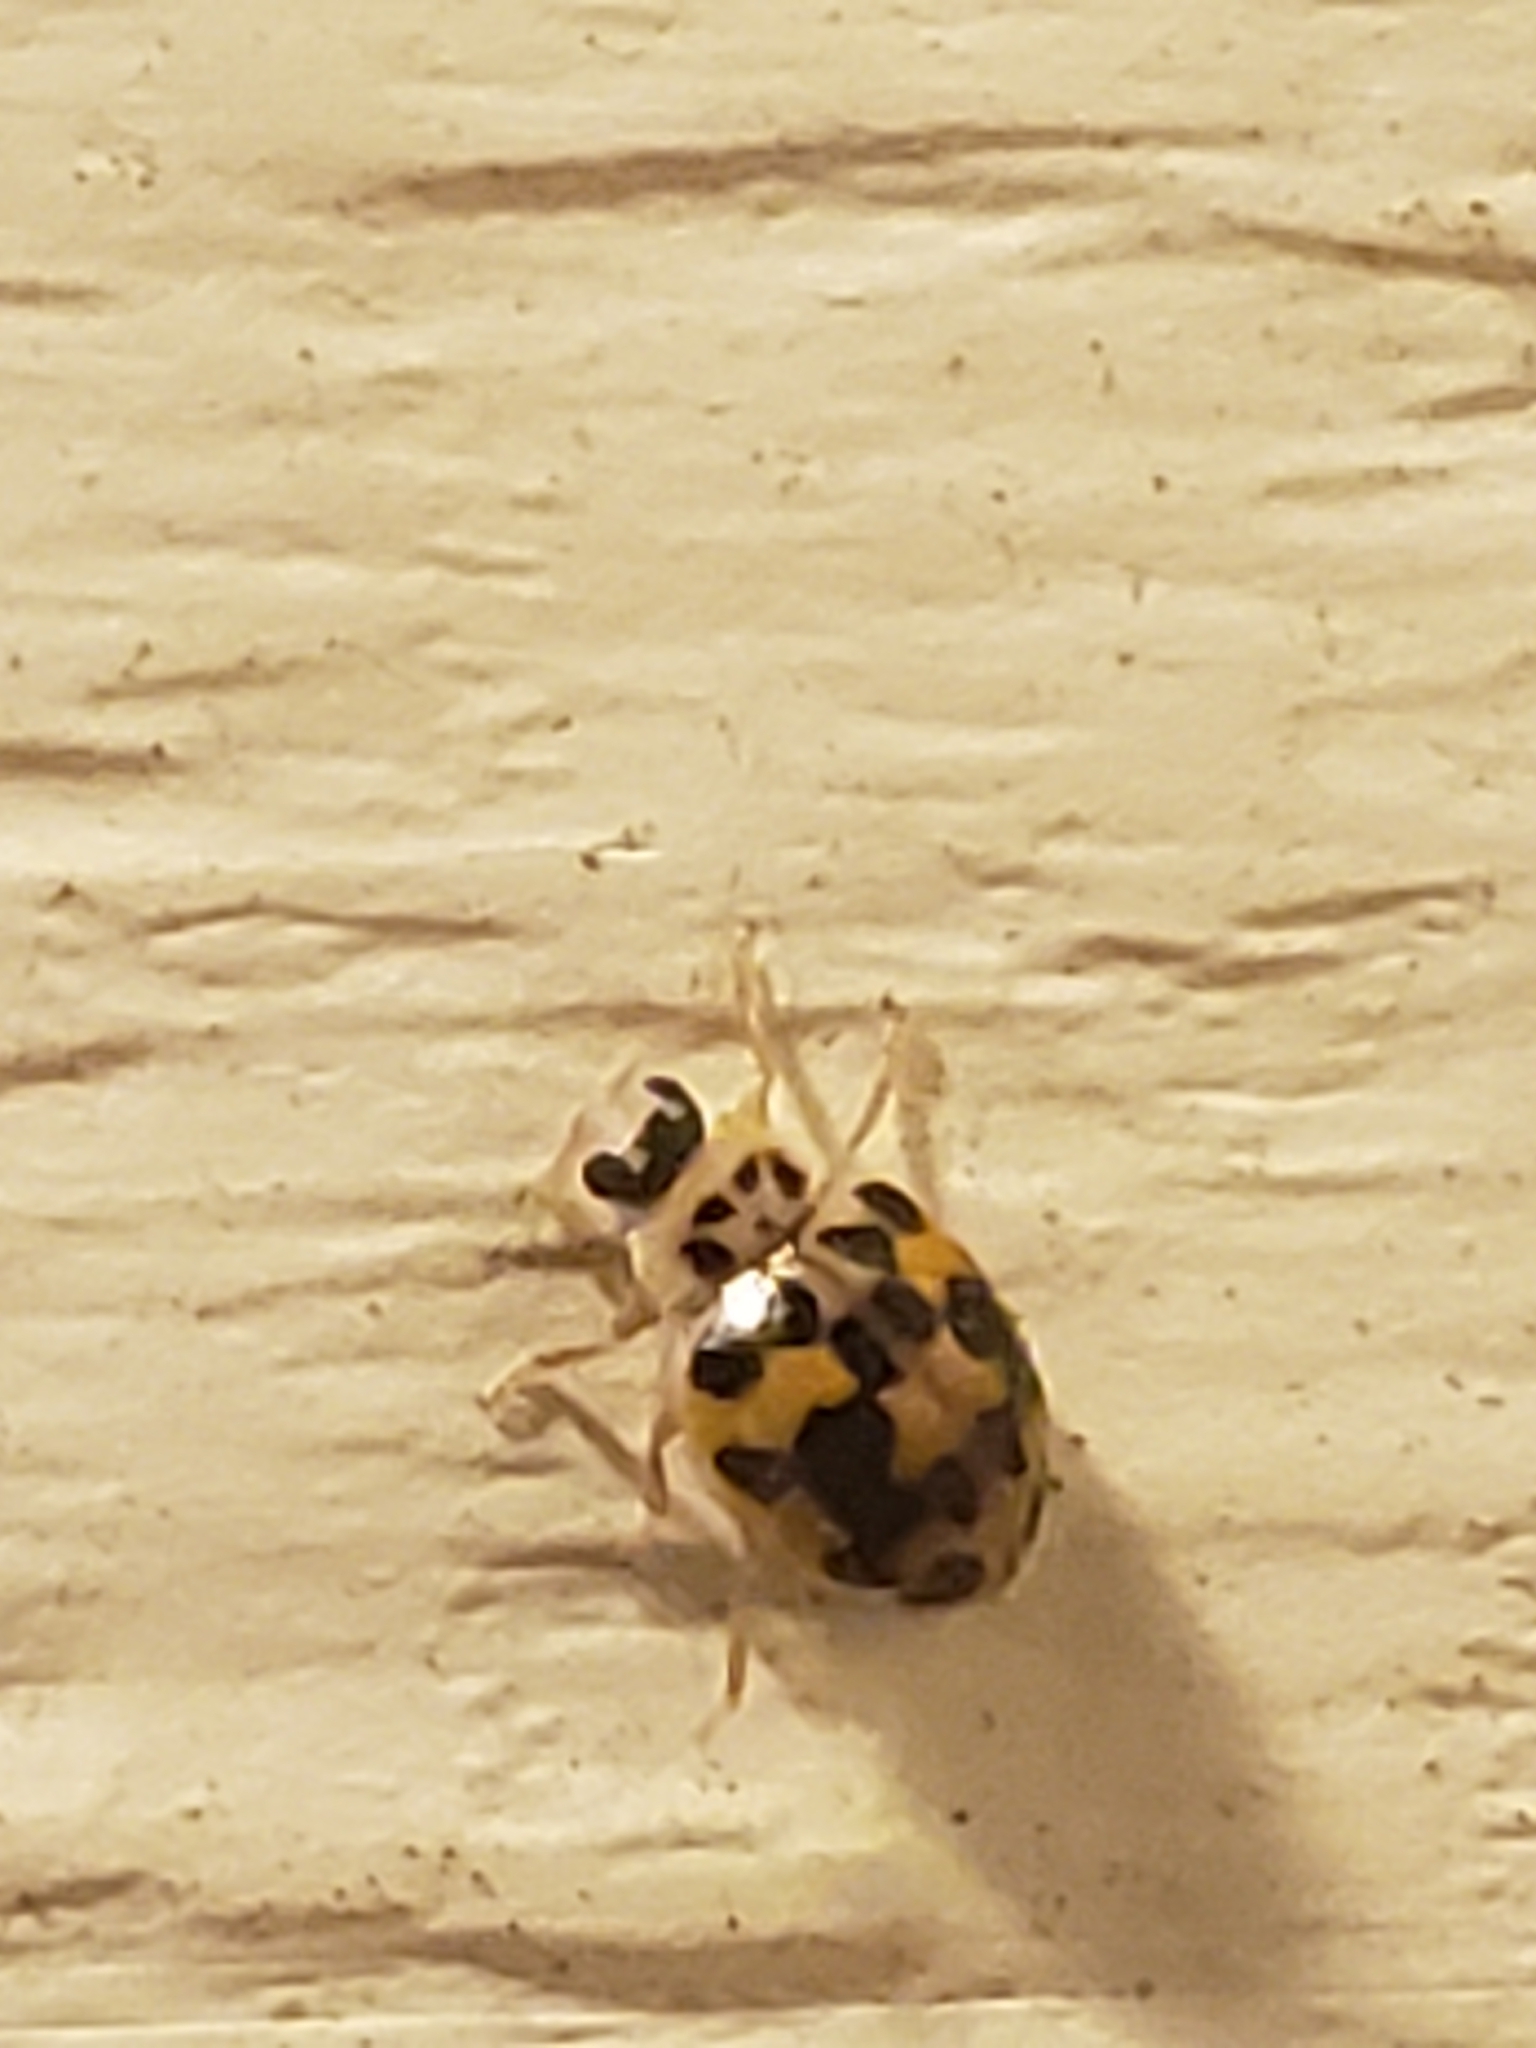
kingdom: Animalia
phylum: Arthropoda
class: Insecta
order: Coleoptera
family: Coccinellidae
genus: Psyllobora
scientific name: Psyllobora vigintimaculata
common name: Ladybird beetle
